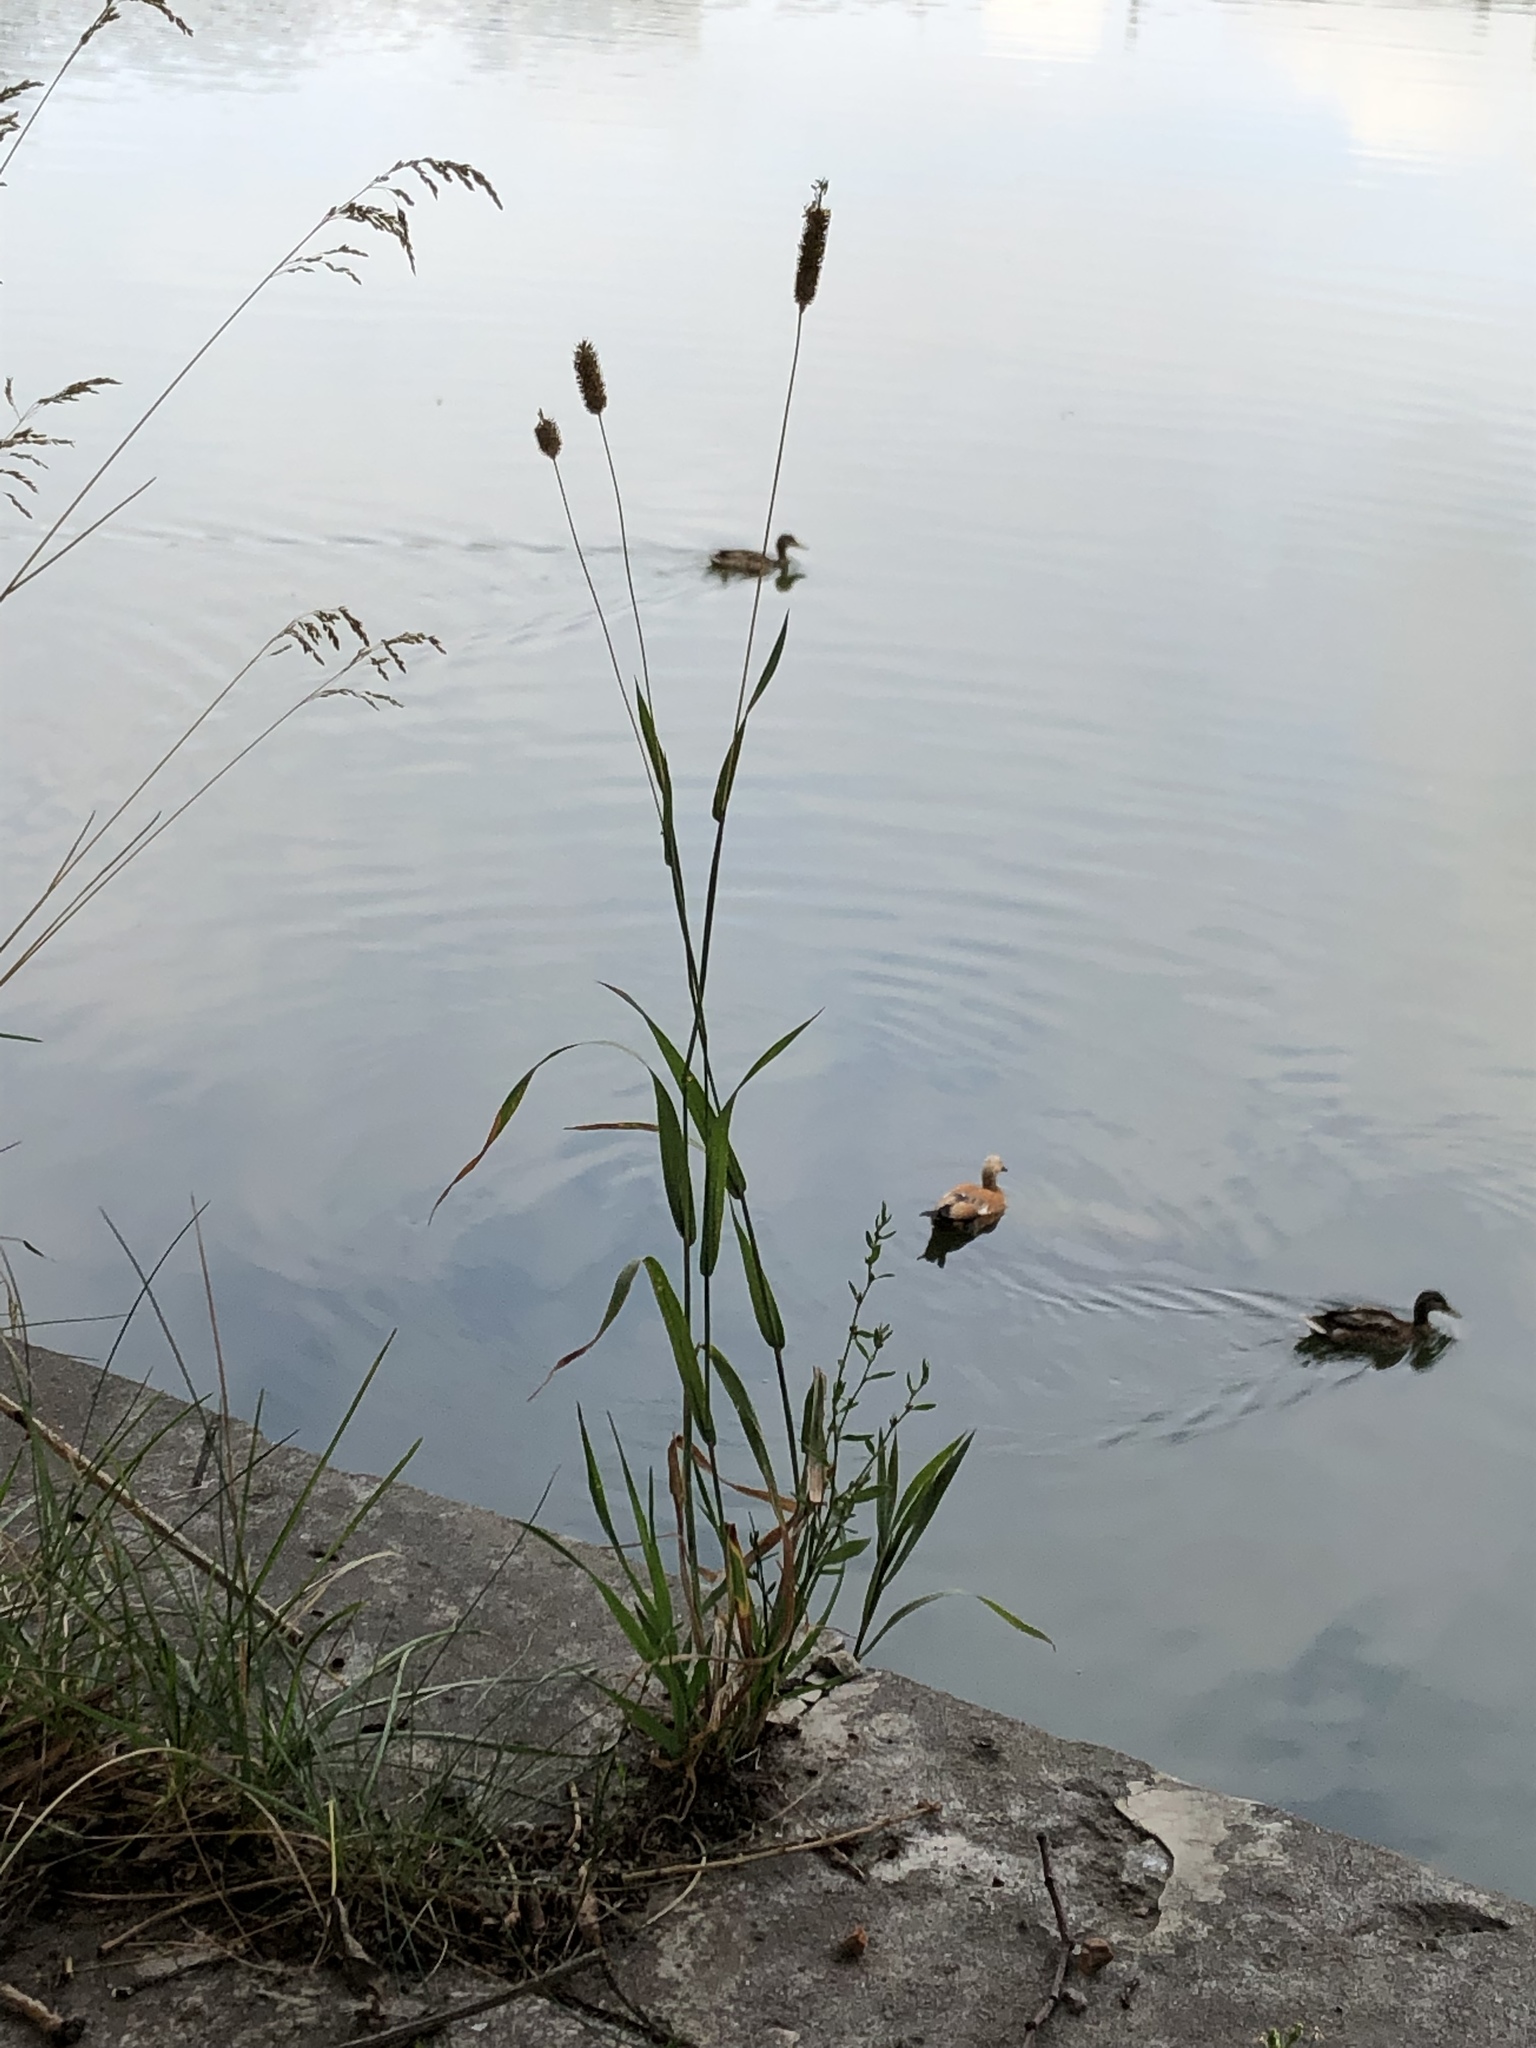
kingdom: Plantae
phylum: Tracheophyta
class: Liliopsida
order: Poales
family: Poaceae
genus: Phleum
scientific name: Phleum pratense
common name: Timothy grass
